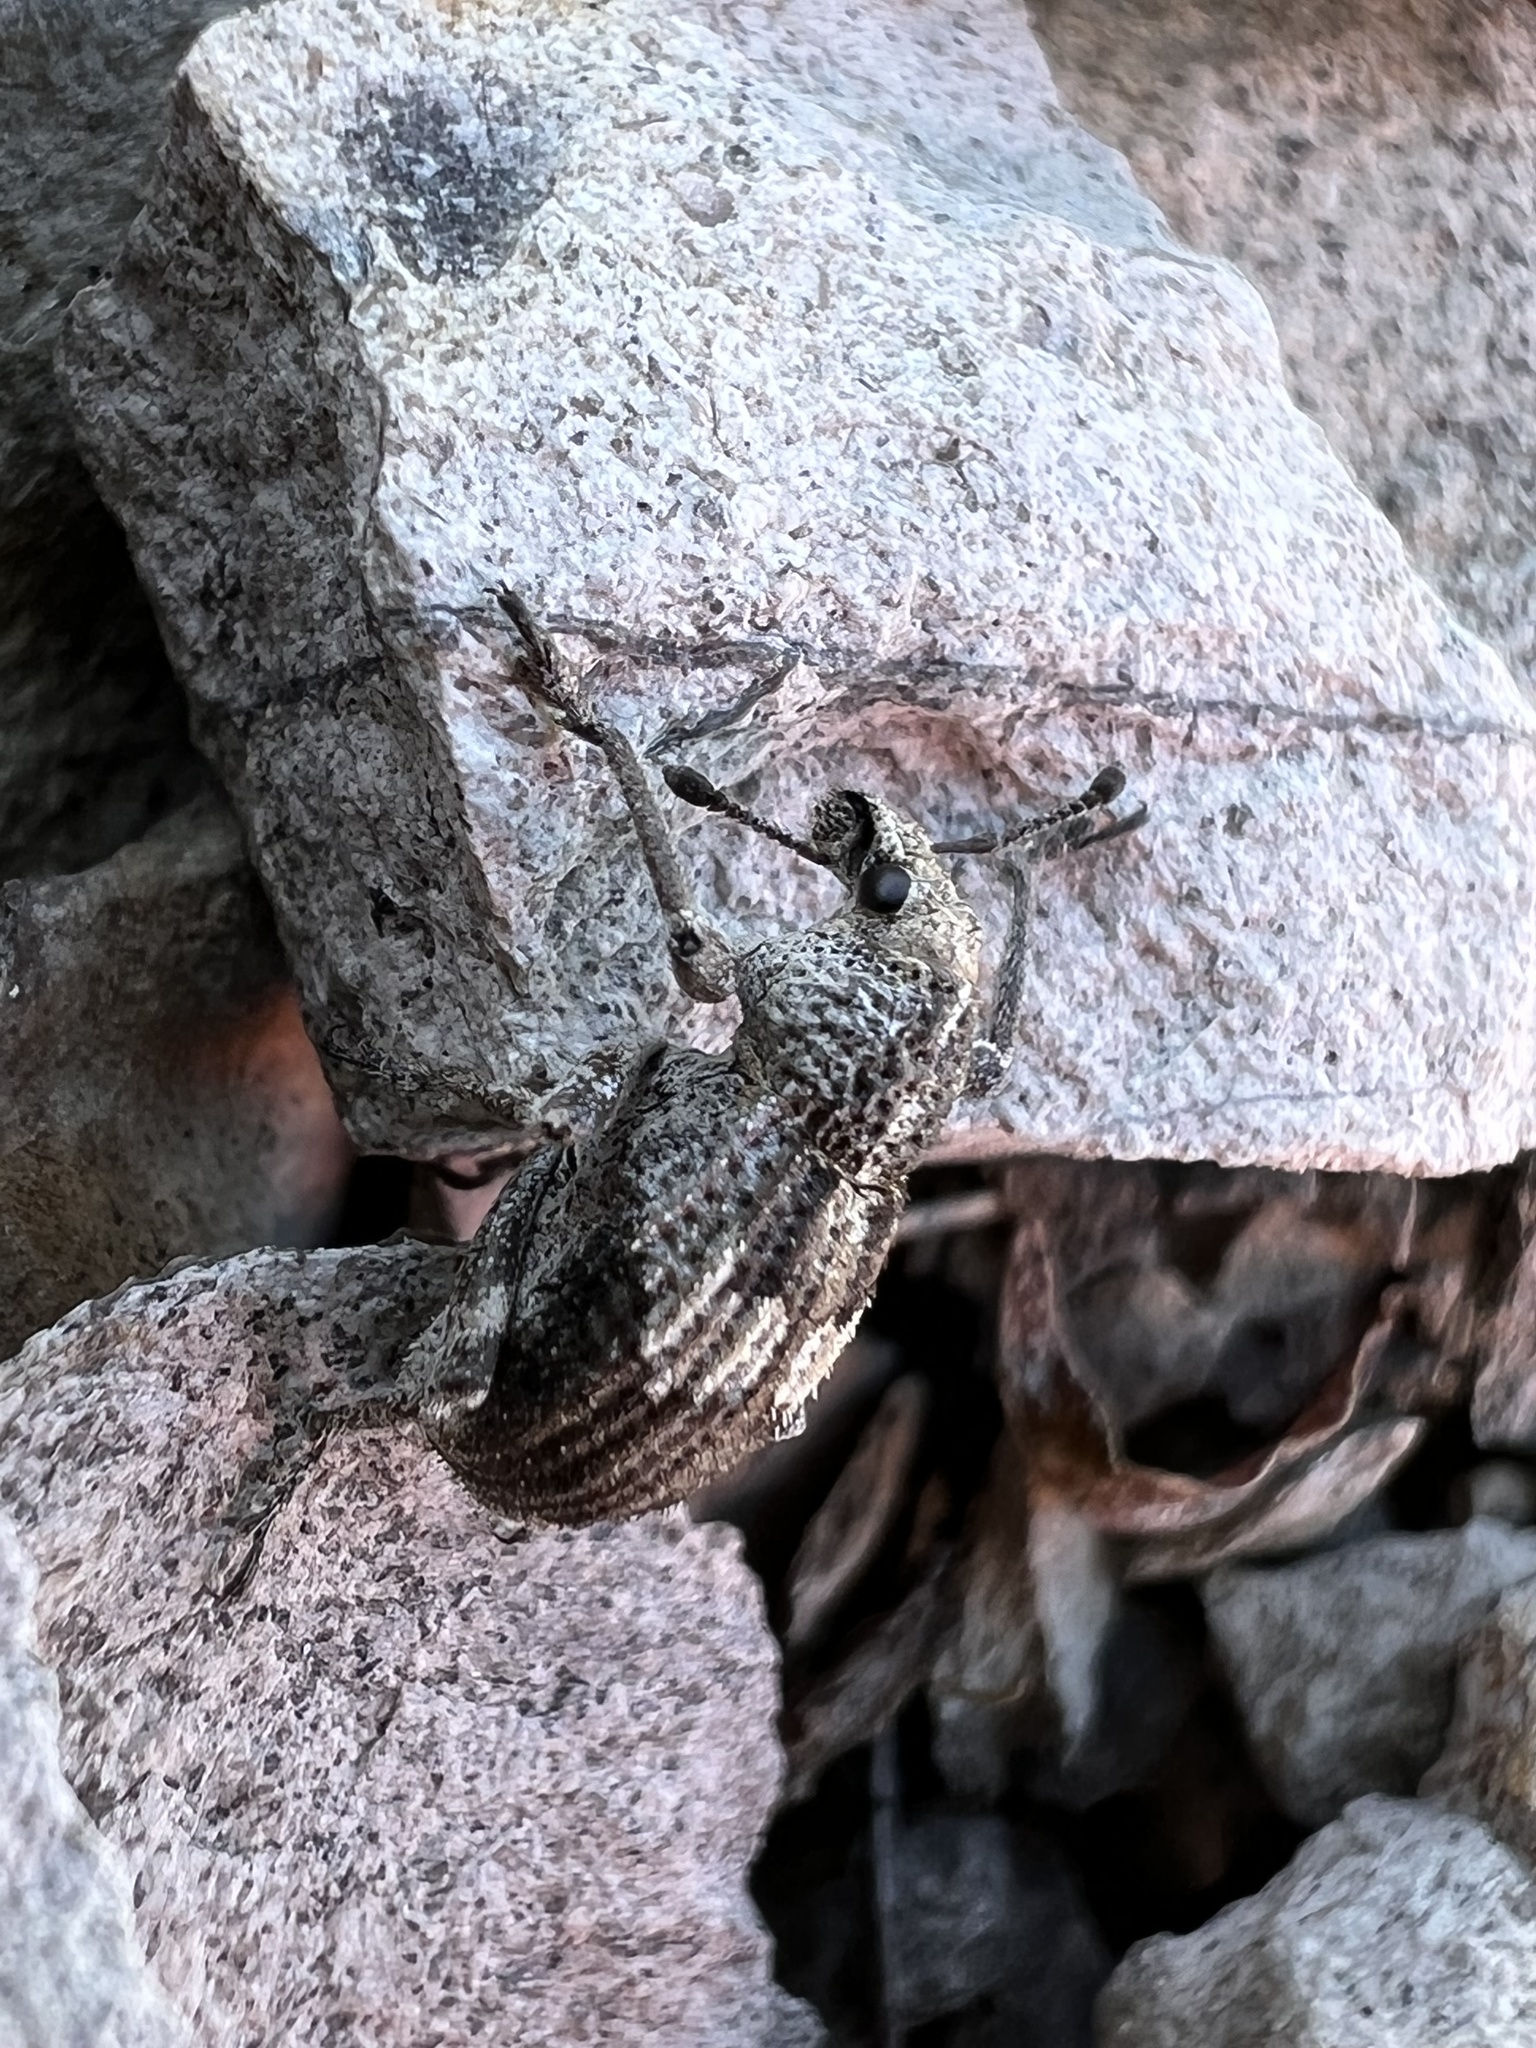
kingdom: Animalia
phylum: Arthropoda
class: Insecta
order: Coleoptera
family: Curculionidae
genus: Graphorhinus
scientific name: Graphorhinus vadosus
